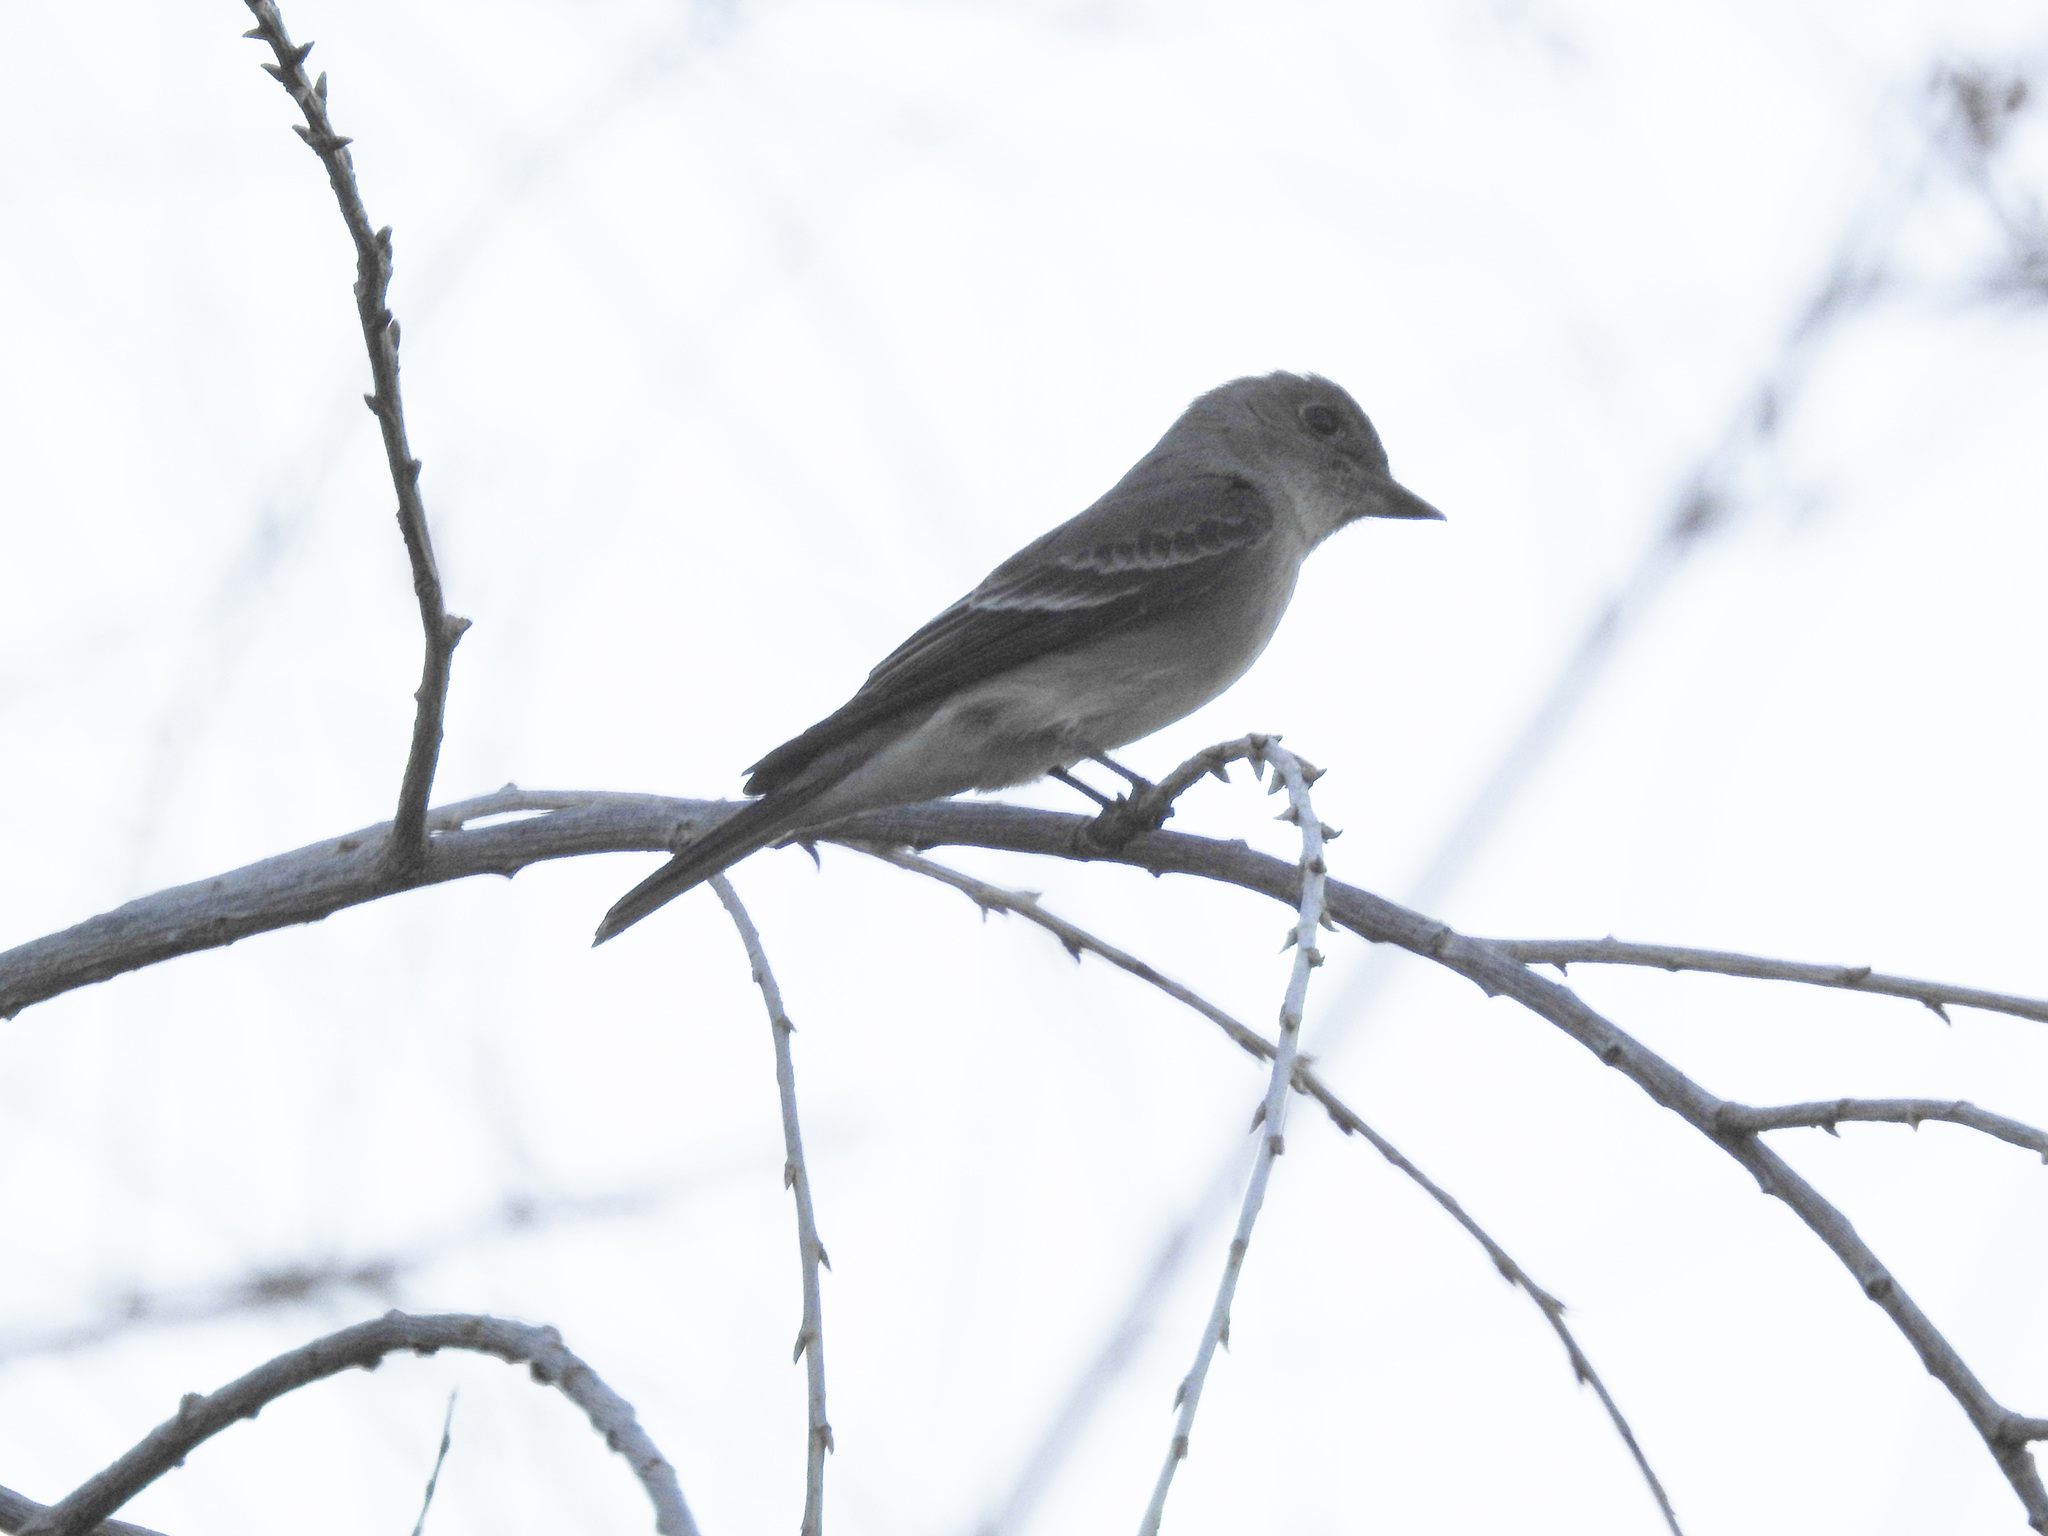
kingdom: Animalia
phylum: Chordata
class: Aves
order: Passeriformes
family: Tyrannidae
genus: Contopus
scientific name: Contopus sordidulus
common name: Western wood-pewee
